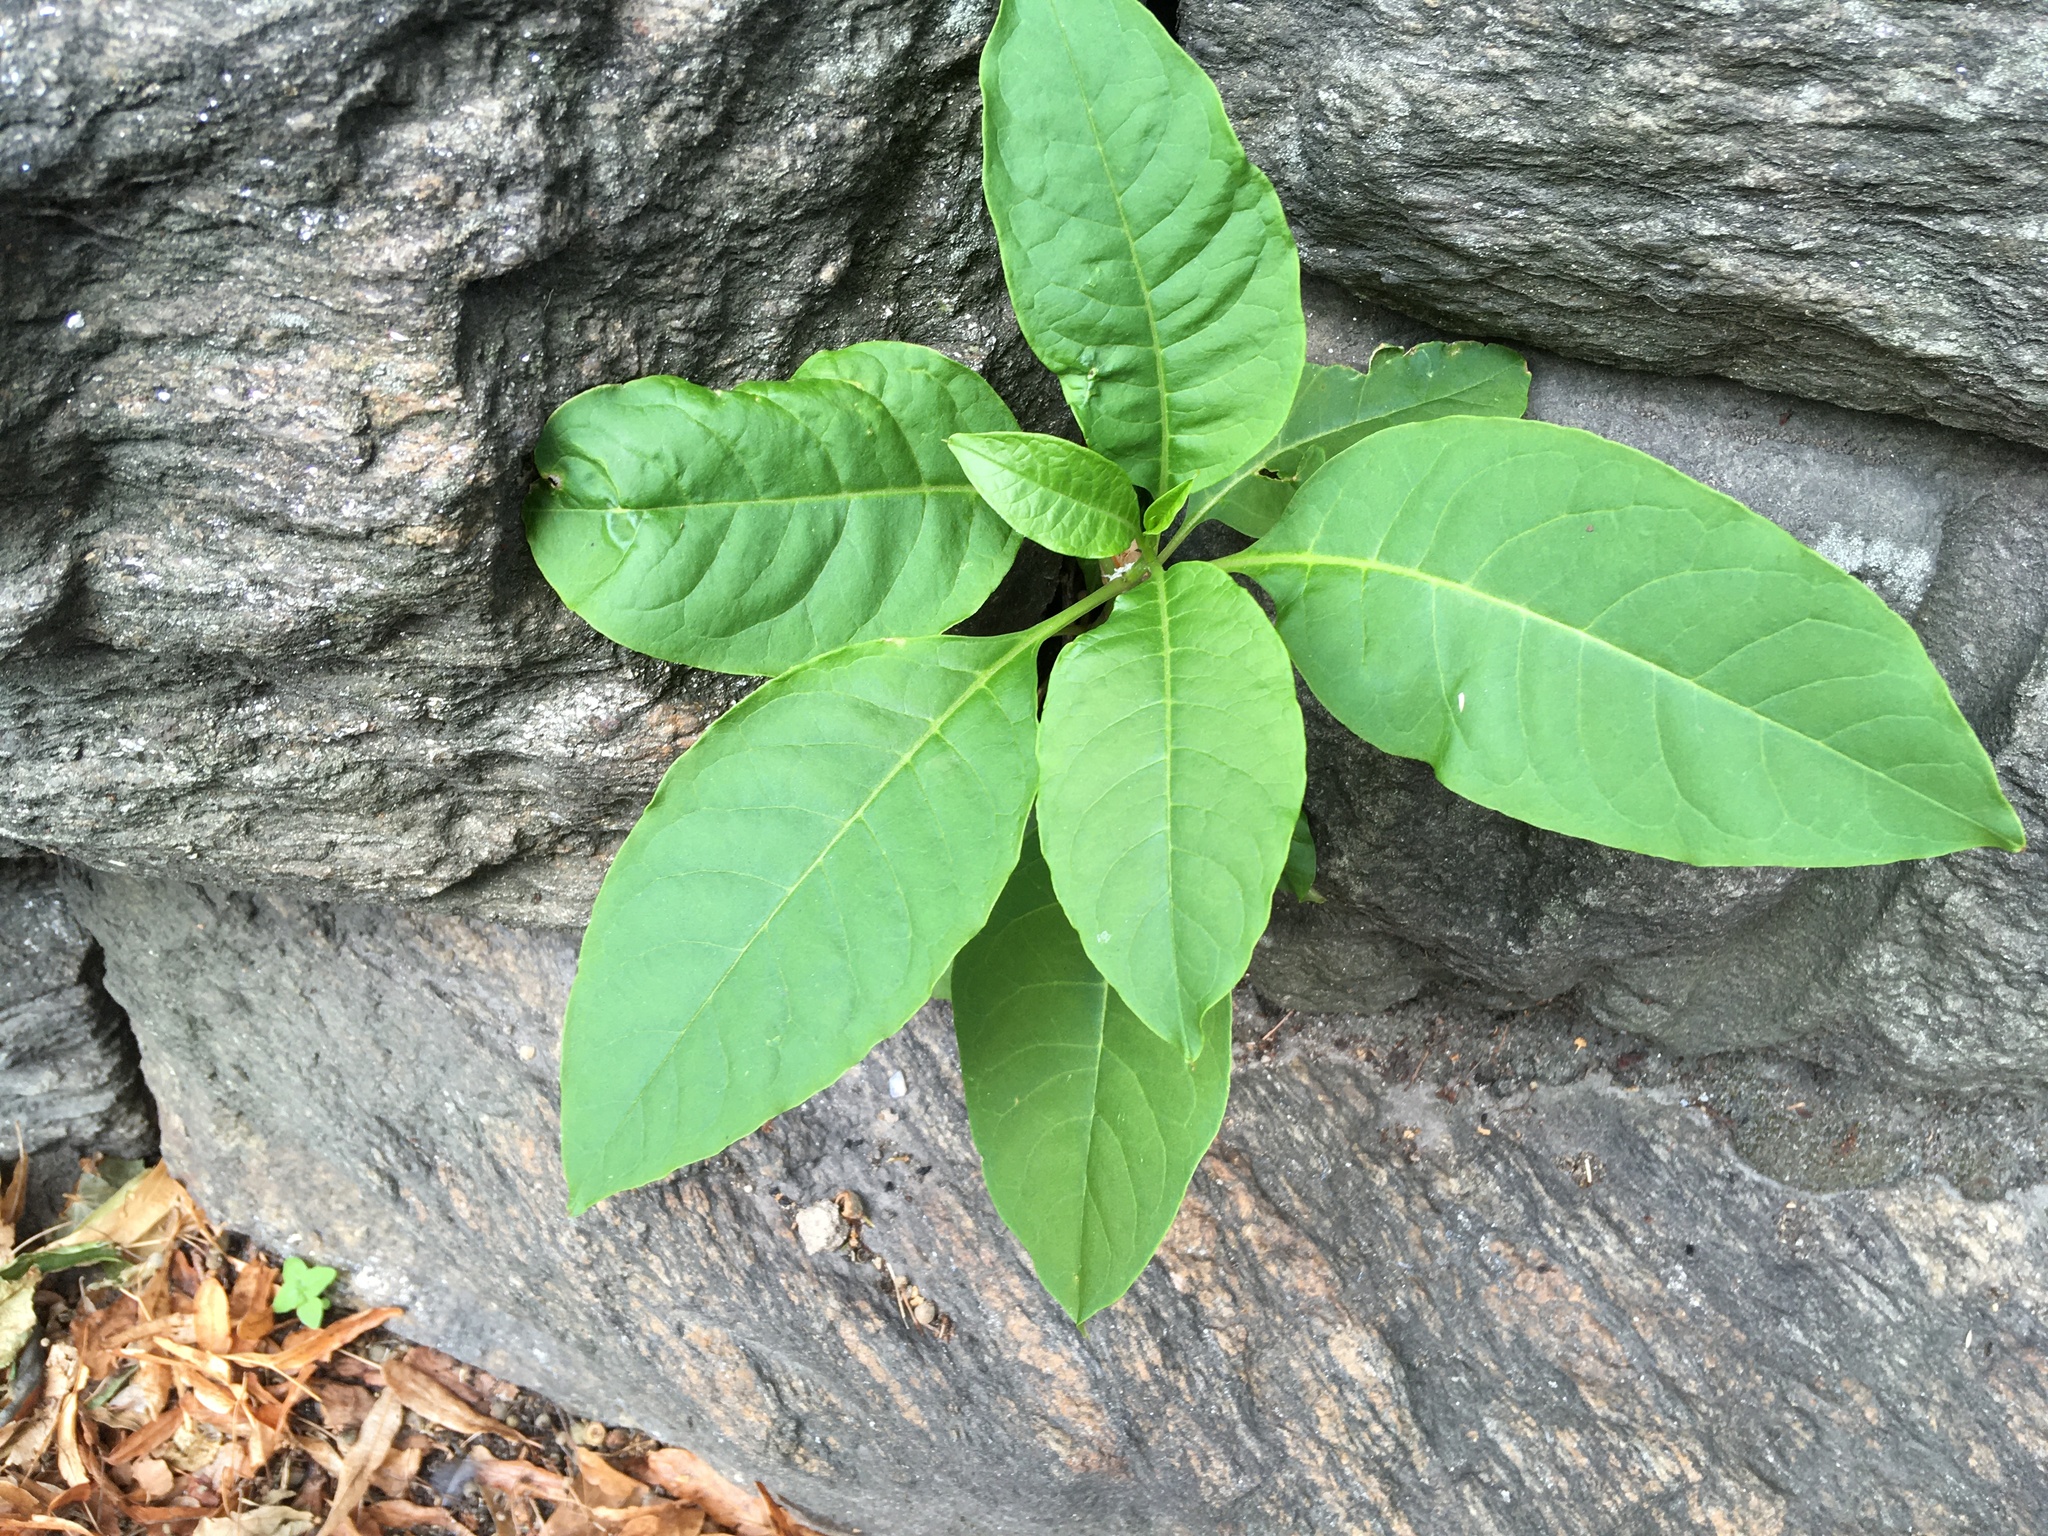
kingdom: Plantae
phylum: Tracheophyta
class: Magnoliopsida
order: Caryophyllales
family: Phytolaccaceae
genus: Phytolacca
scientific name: Phytolacca americana
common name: American pokeweed
